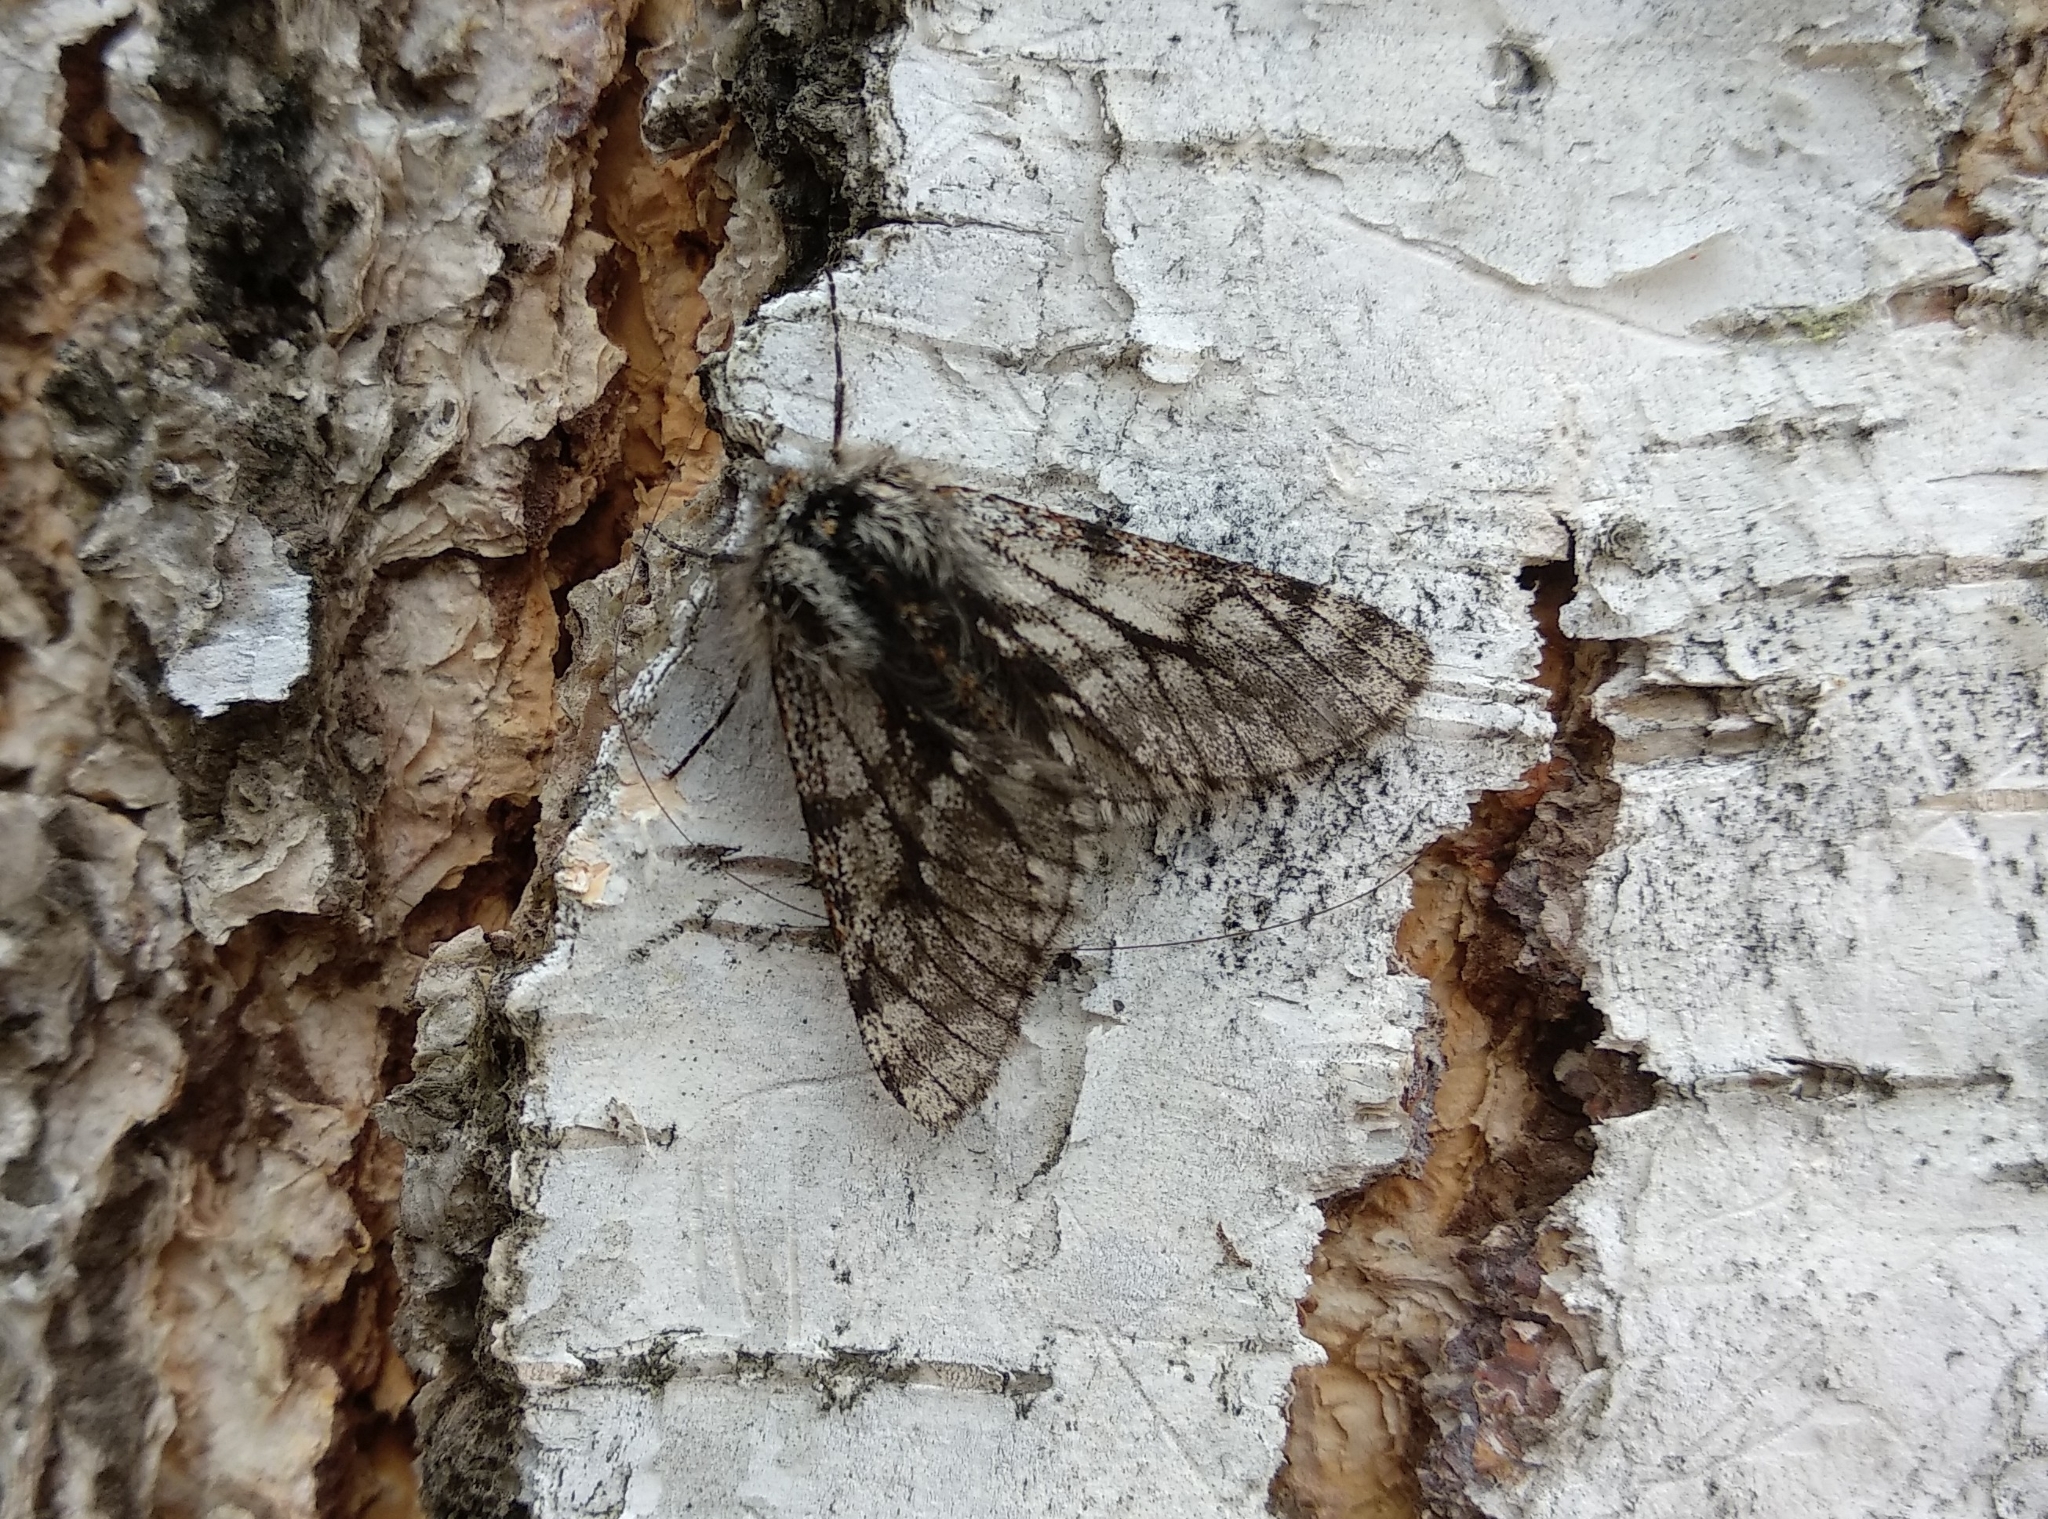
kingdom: Animalia
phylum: Arthropoda
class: Insecta
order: Lepidoptera
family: Geometridae
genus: Lycia
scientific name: Lycia pomonaria
